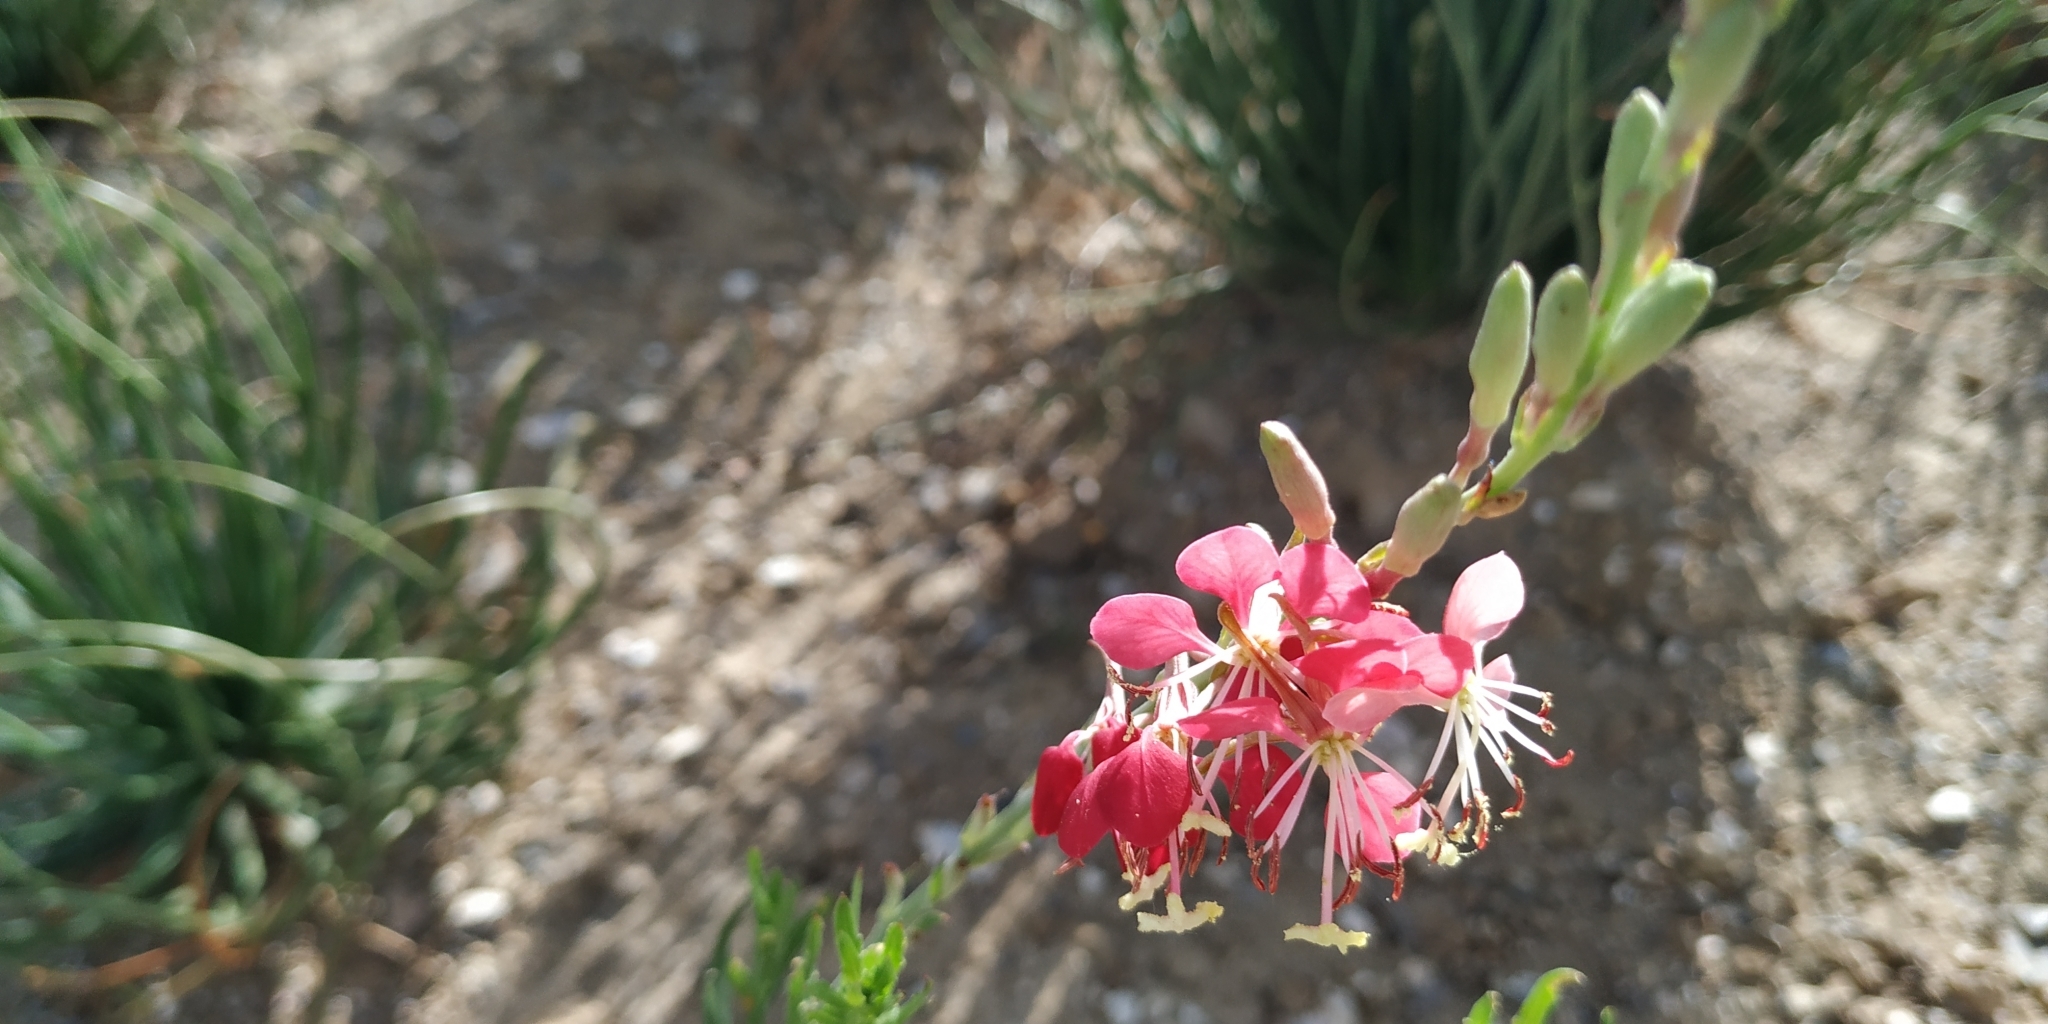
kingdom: Plantae
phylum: Tracheophyta
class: Magnoliopsida
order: Myrtales
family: Onagraceae
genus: Oenothera
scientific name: Oenothera suffrutescens
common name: Scarlet beeblossom
